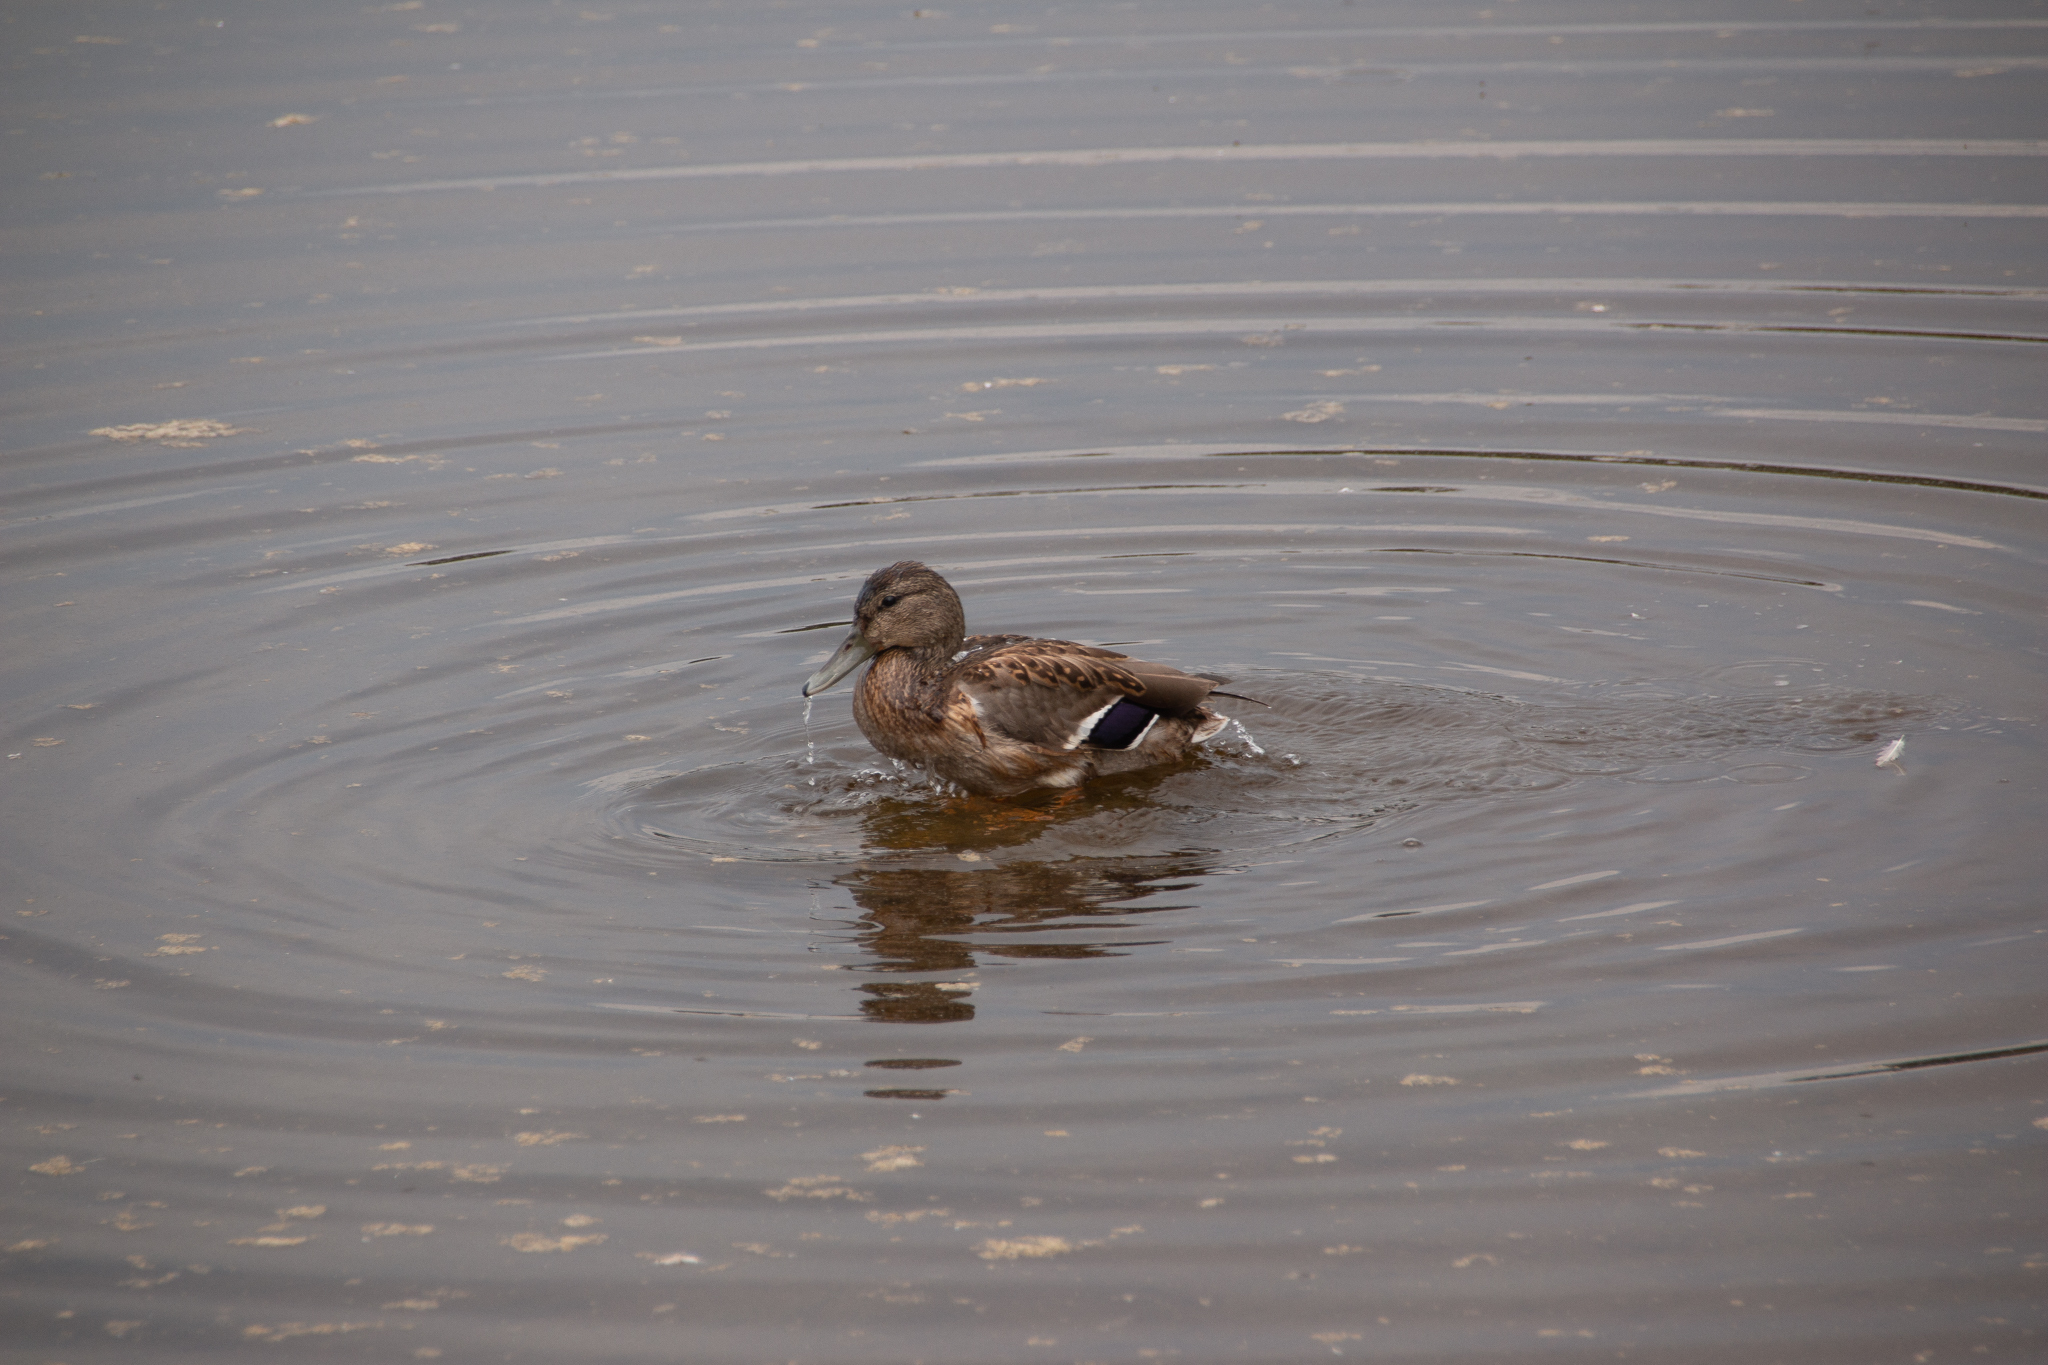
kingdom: Animalia
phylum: Chordata
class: Aves
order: Anseriformes
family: Anatidae
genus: Anas
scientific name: Anas platyrhynchos
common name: Mallard
